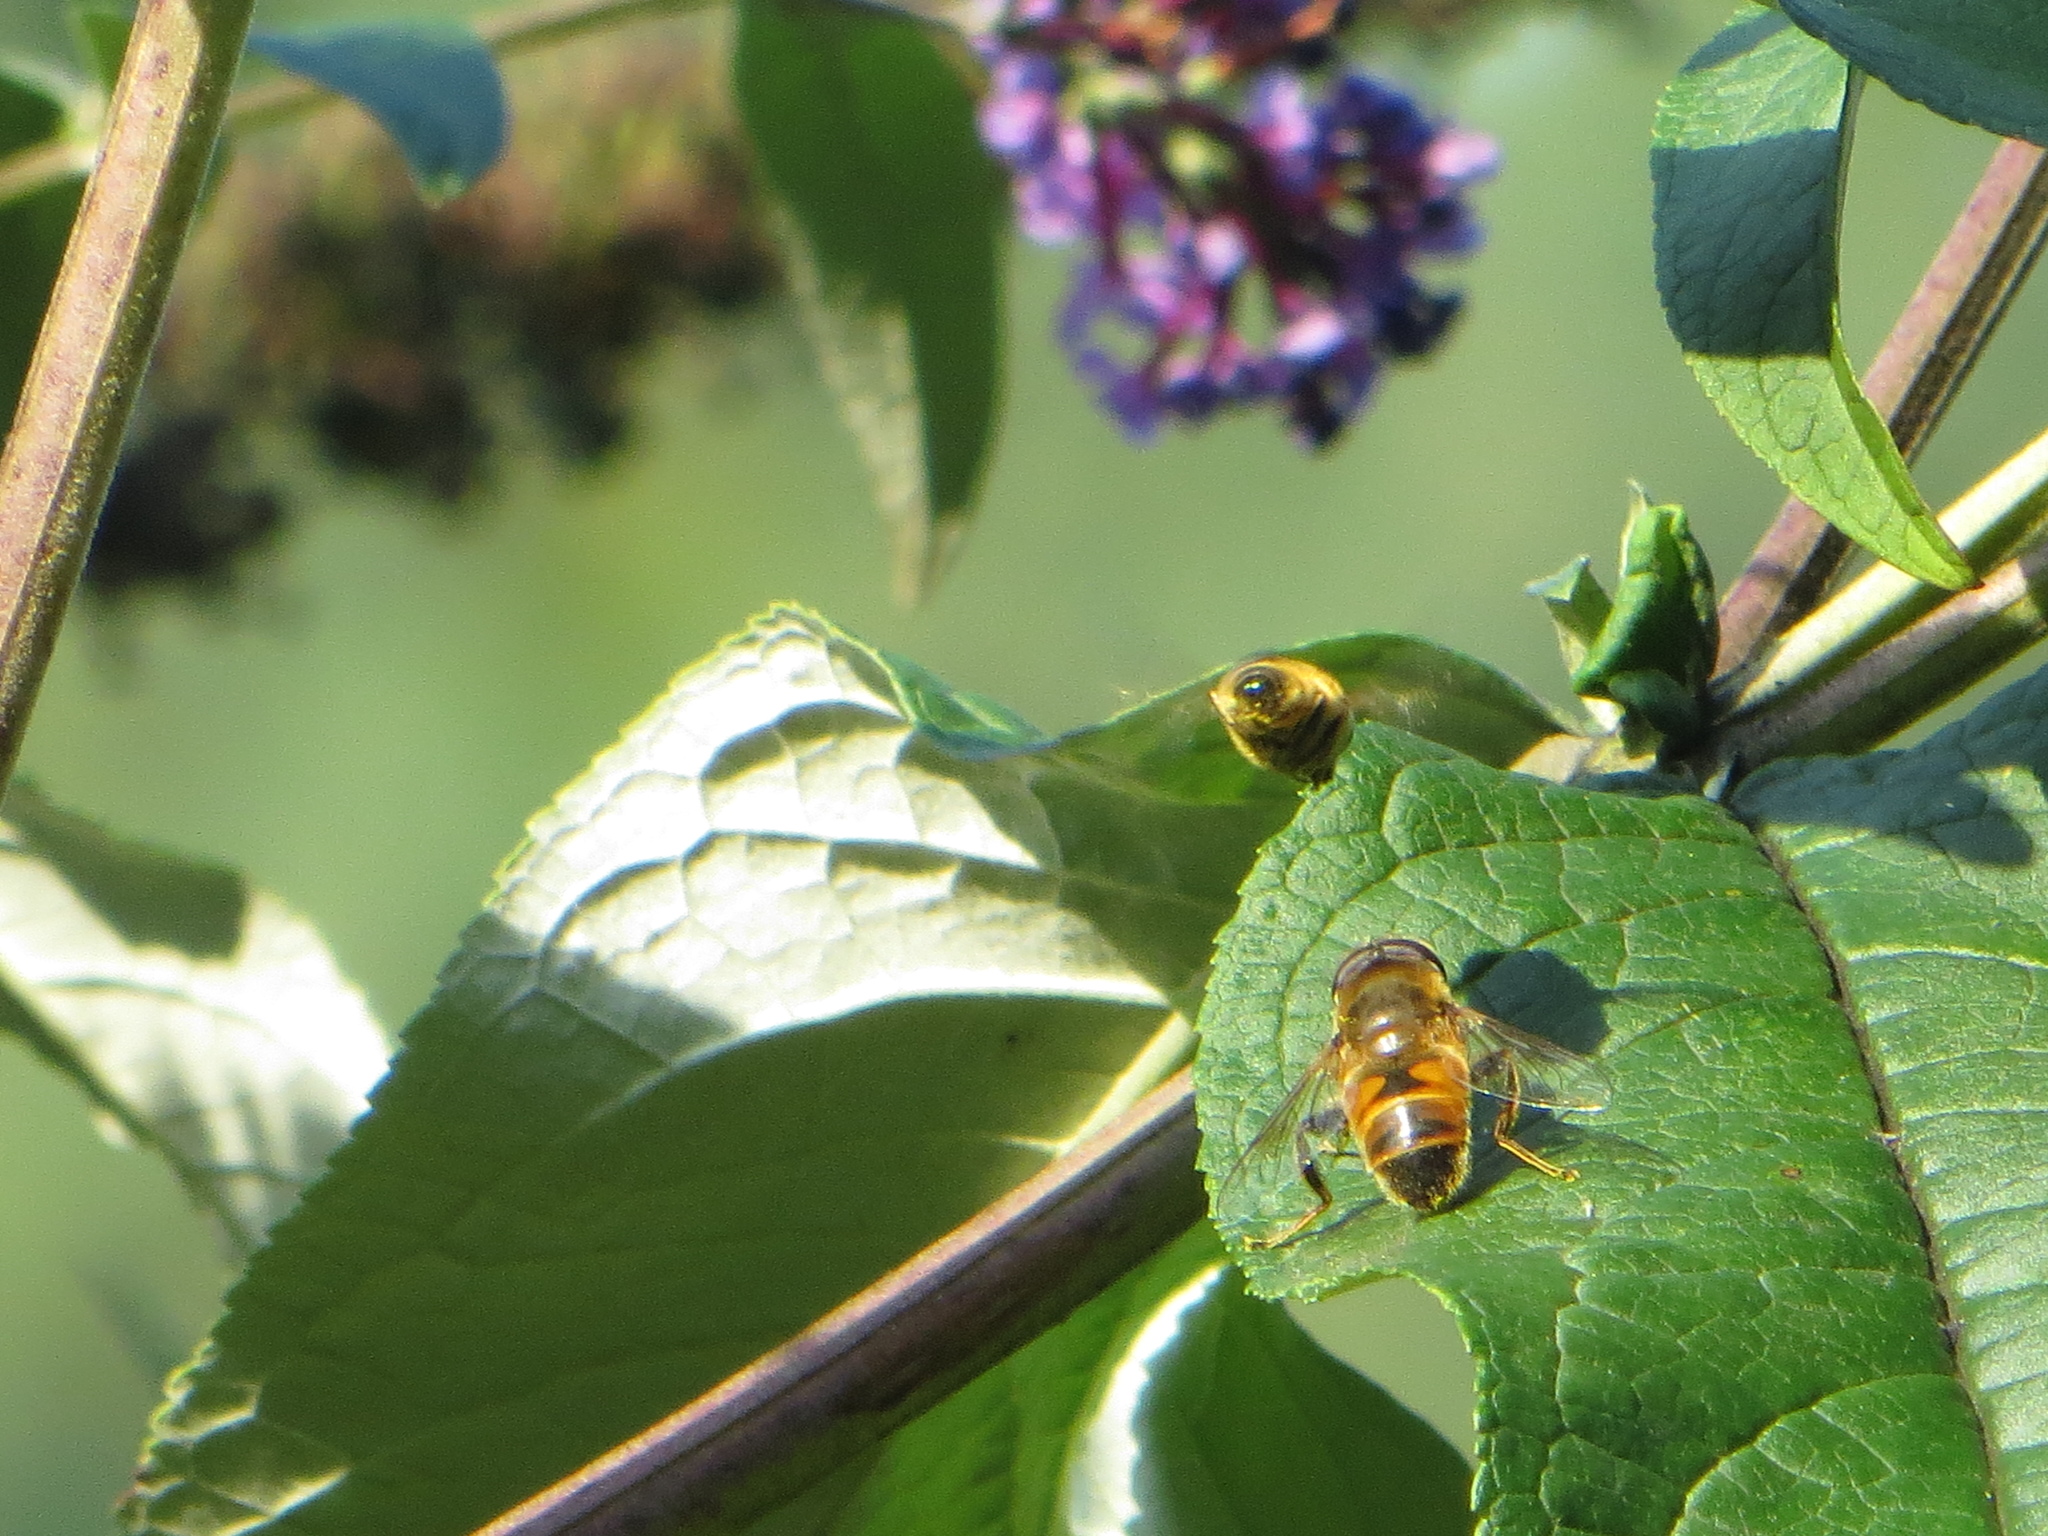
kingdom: Animalia
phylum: Arthropoda
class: Insecta
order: Diptera
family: Syrphidae
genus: Eristalis
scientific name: Eristalis tenax
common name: Drone fly
